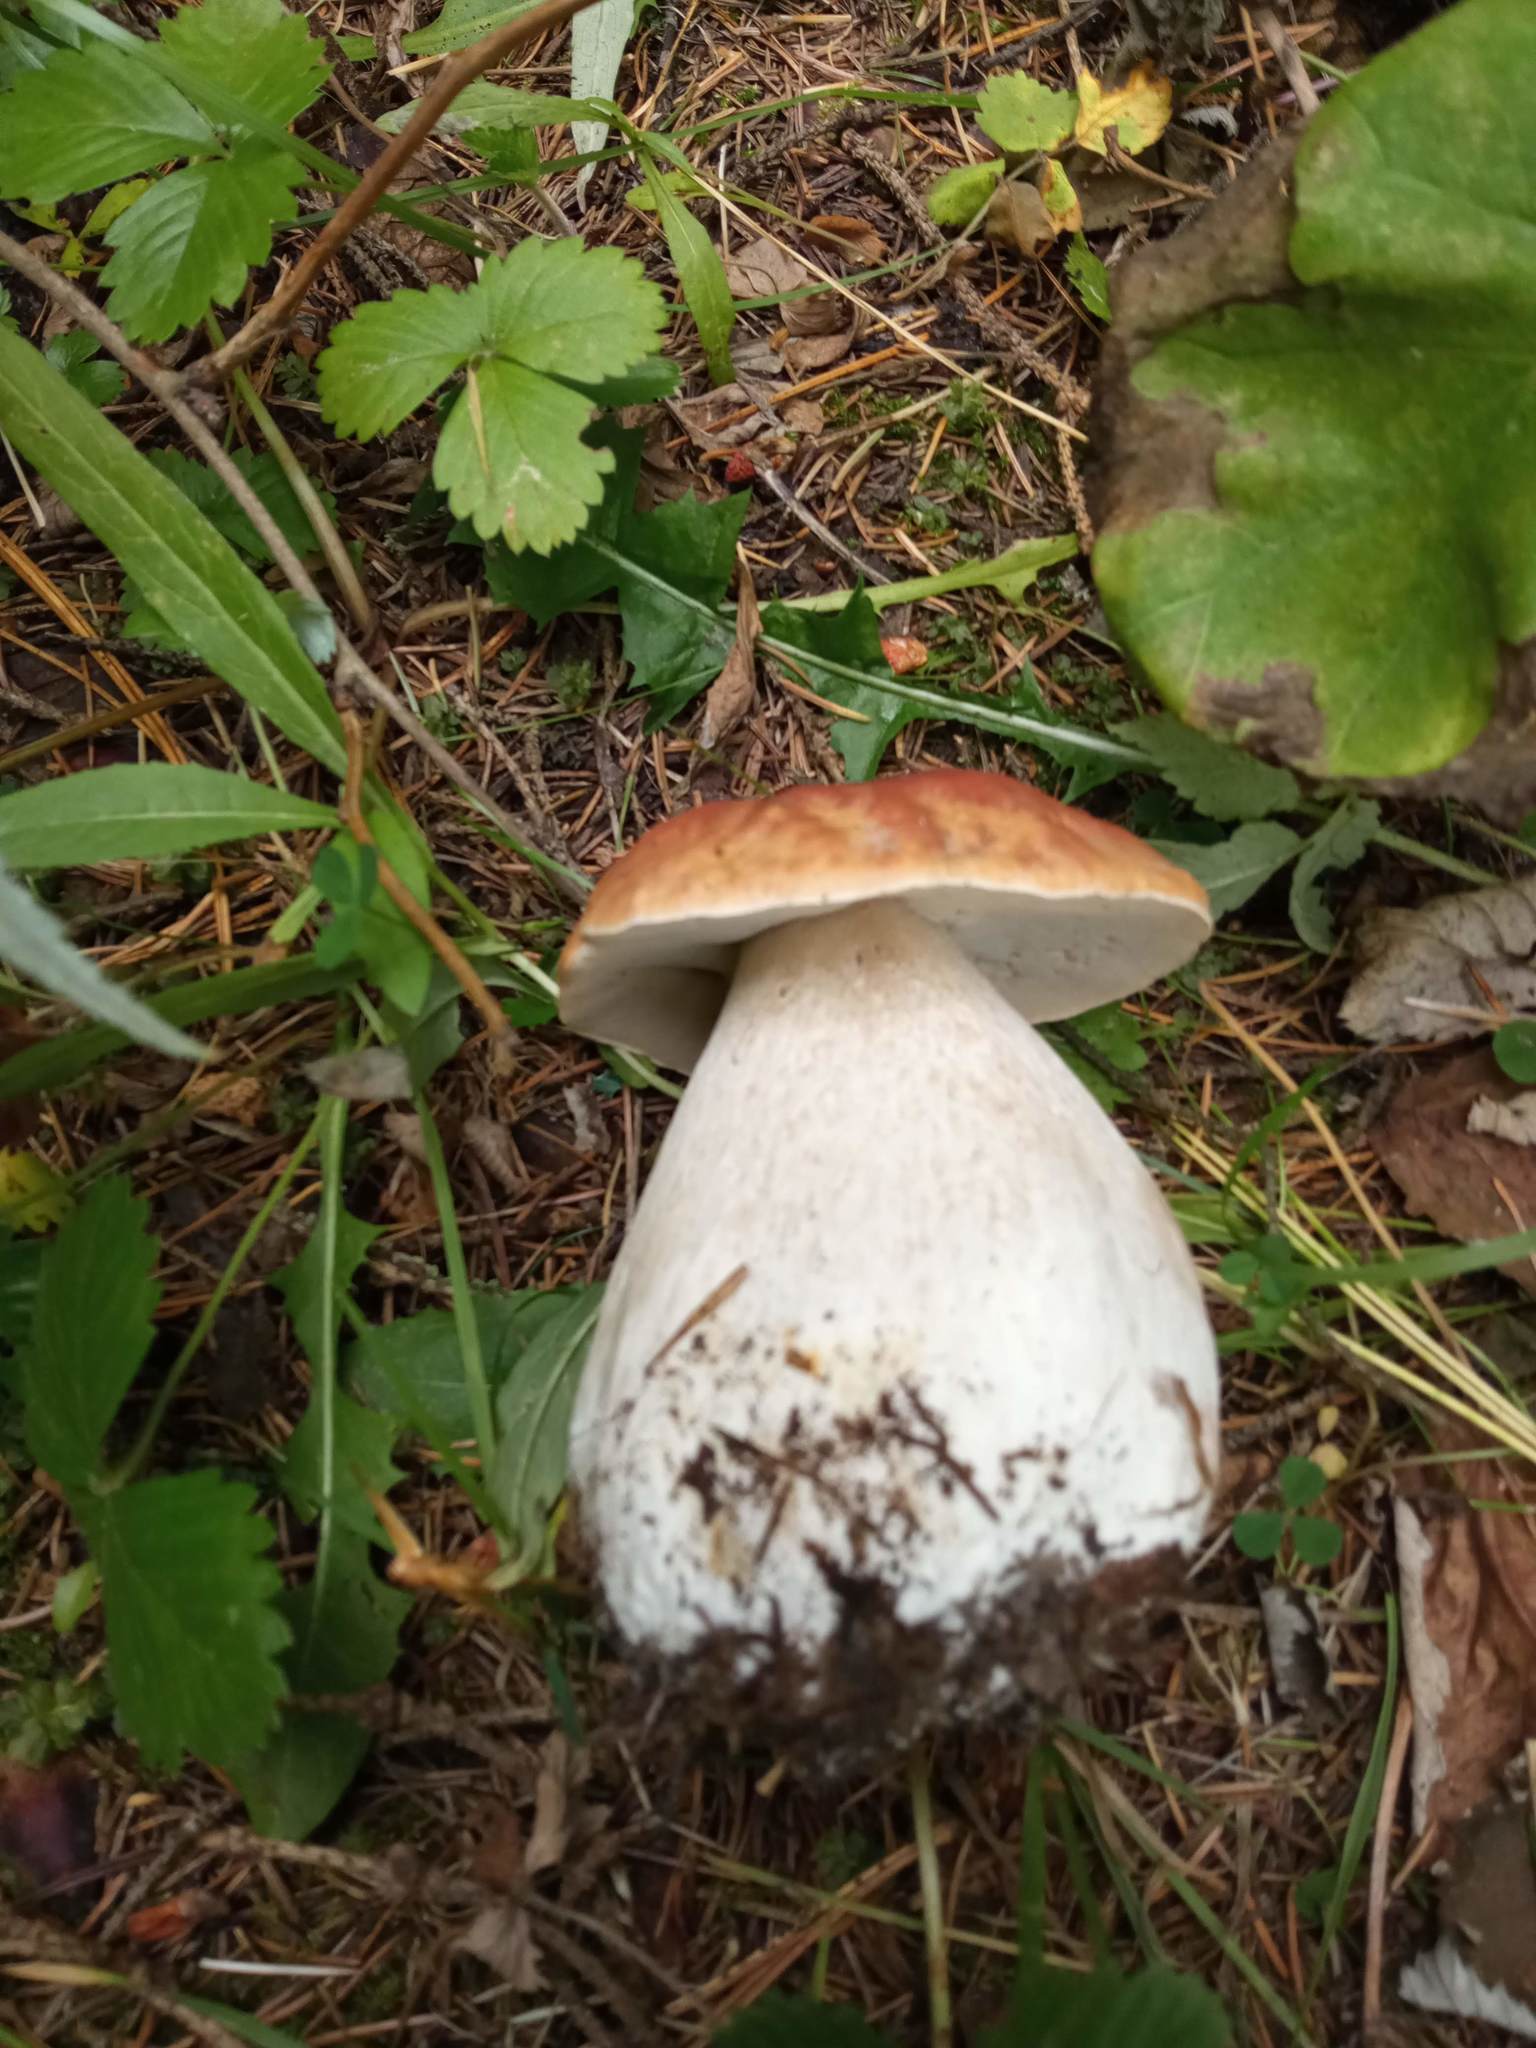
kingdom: Fungi
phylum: Basidiomycota
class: Agaricomycetes
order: Boletales
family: Boletaceae
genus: Boletus
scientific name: Boletus edulis
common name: Cep
